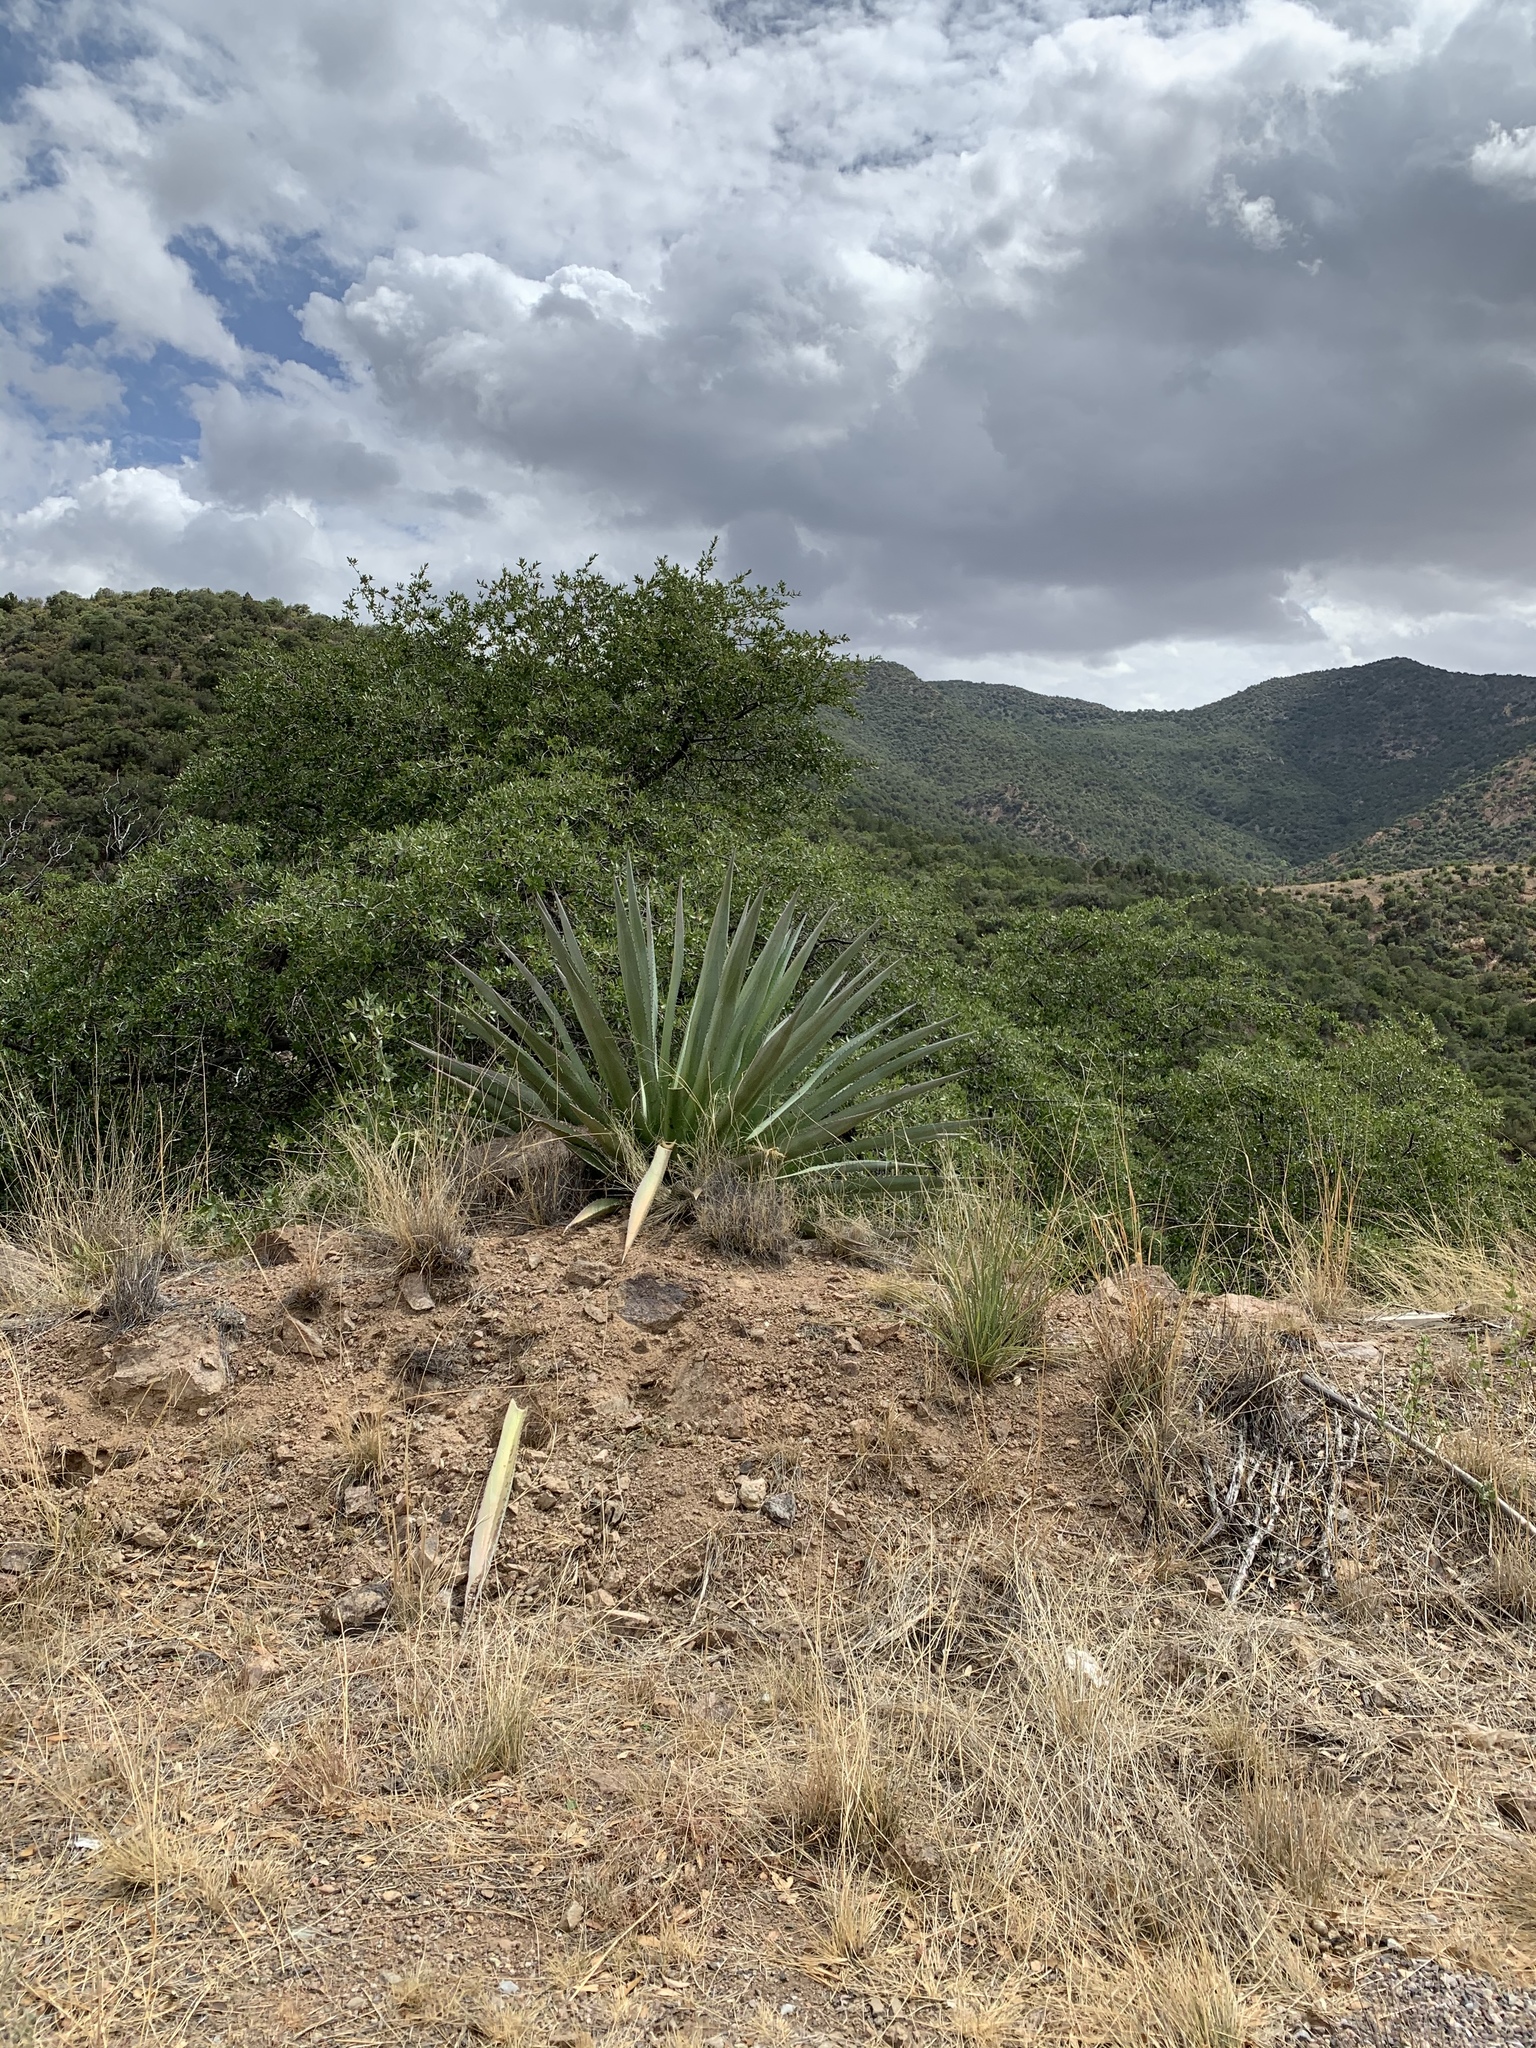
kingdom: Plantae
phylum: Tracheophyta
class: Liliopsida
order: Asparagales
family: Asparagaceae
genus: Agave
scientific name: Agave palmeri
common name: Palmer agave
